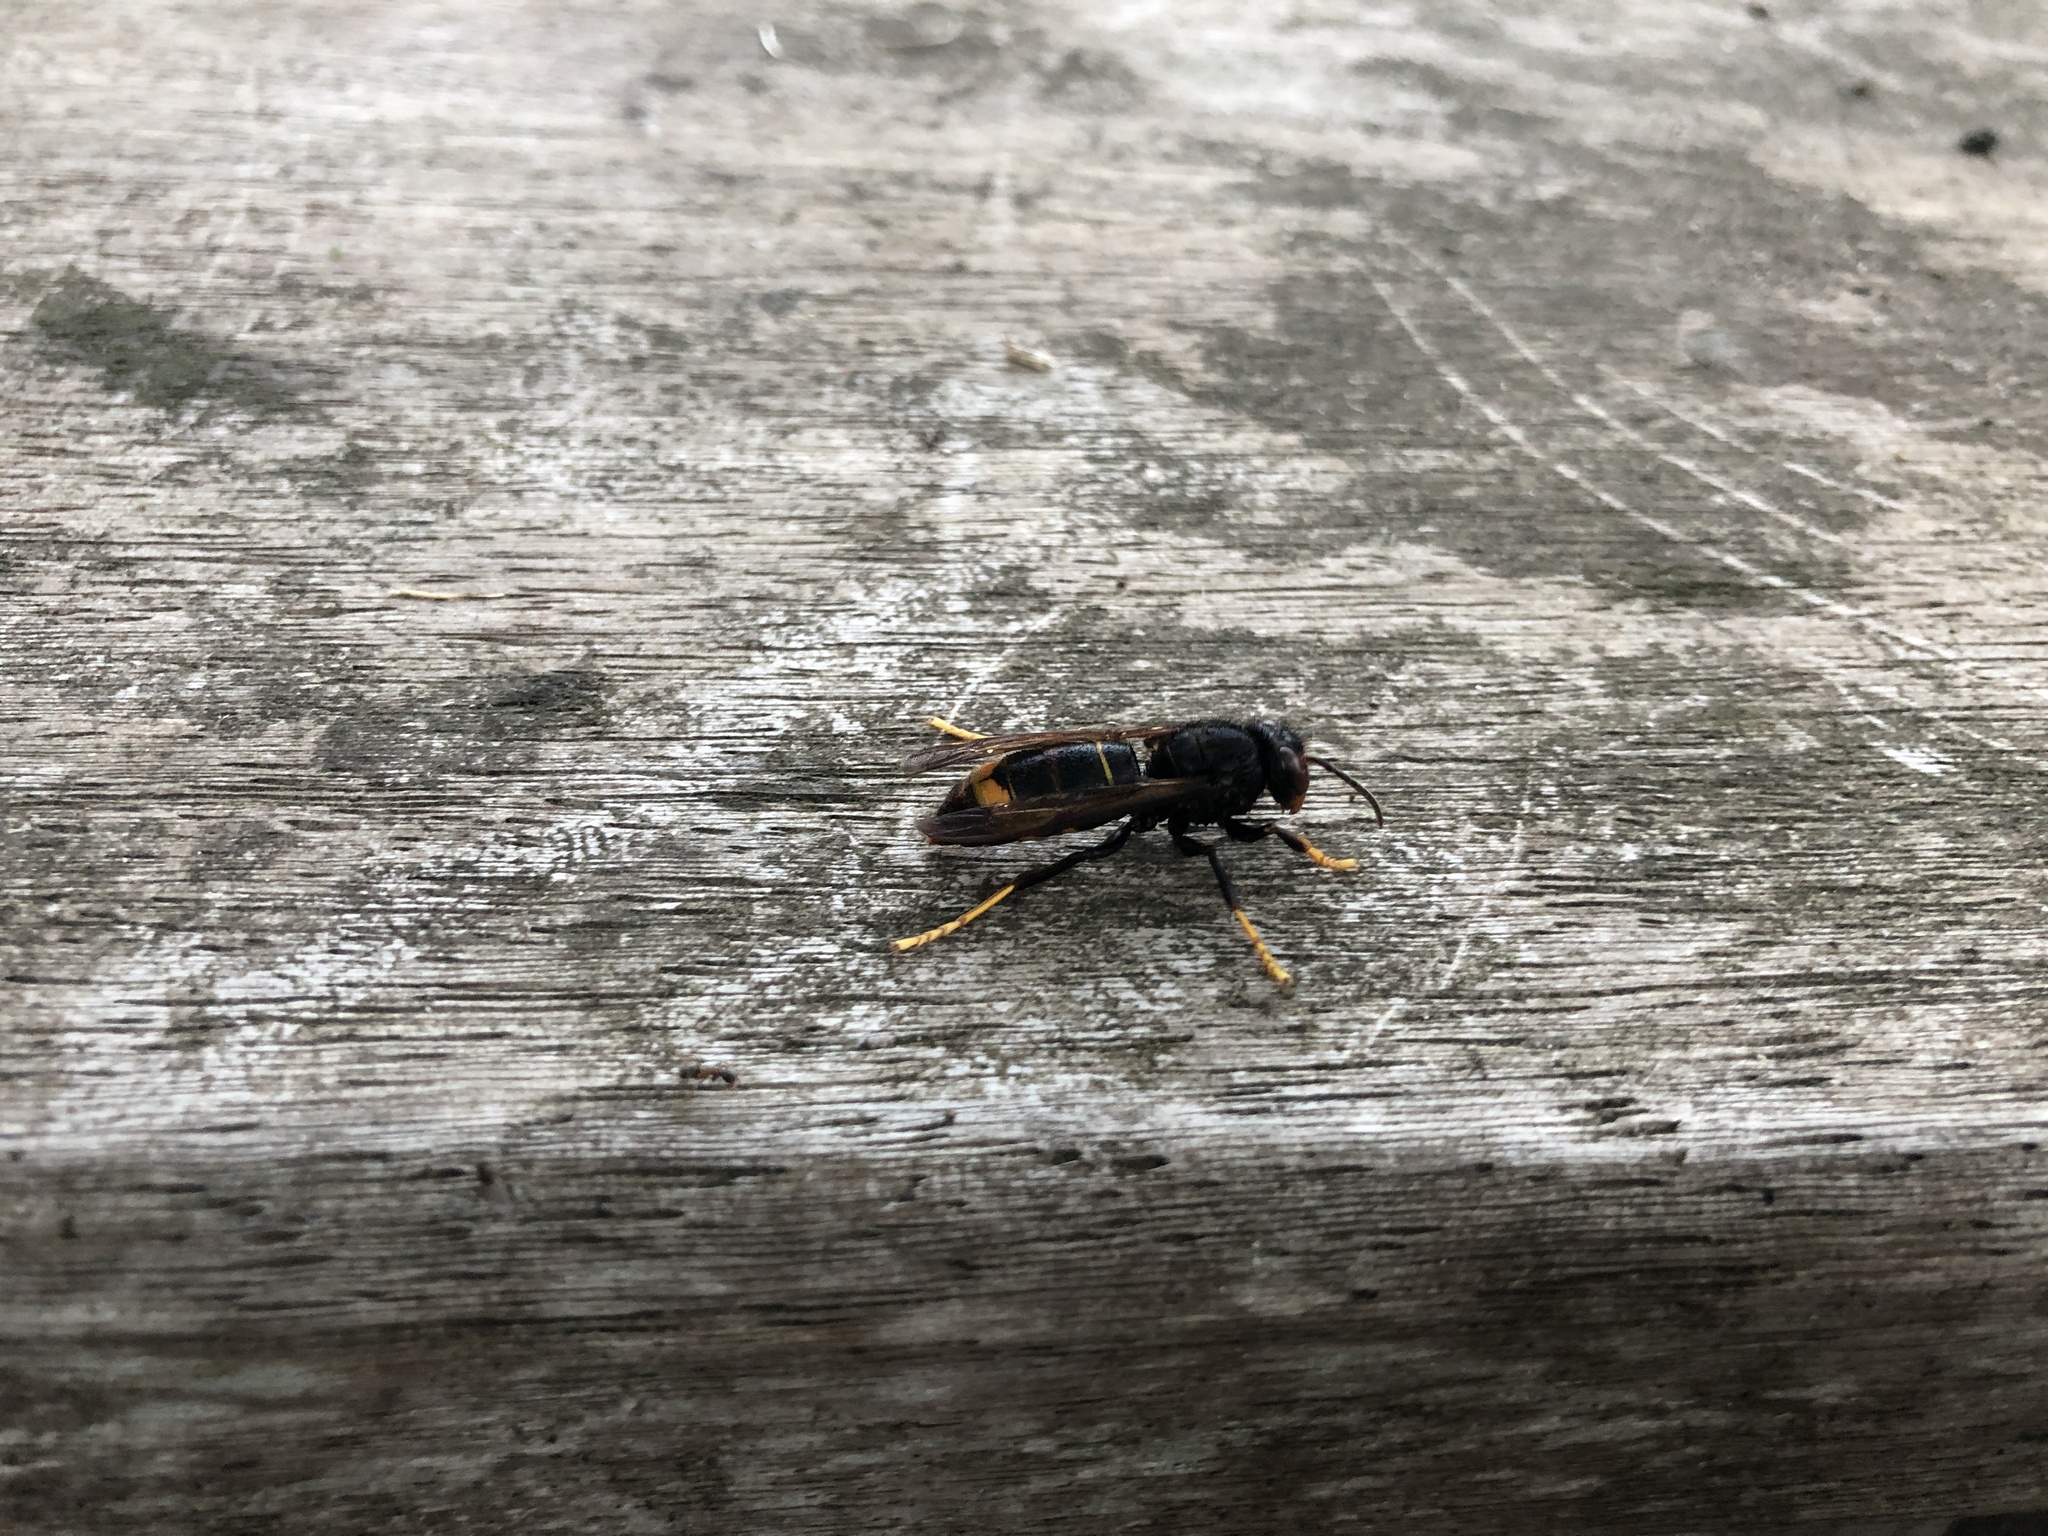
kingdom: Animalia
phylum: Arthropoda
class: Insecta
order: Hymenoptera
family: Vespidae
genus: Vespa
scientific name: Vespa velutina
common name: Asian hornet
